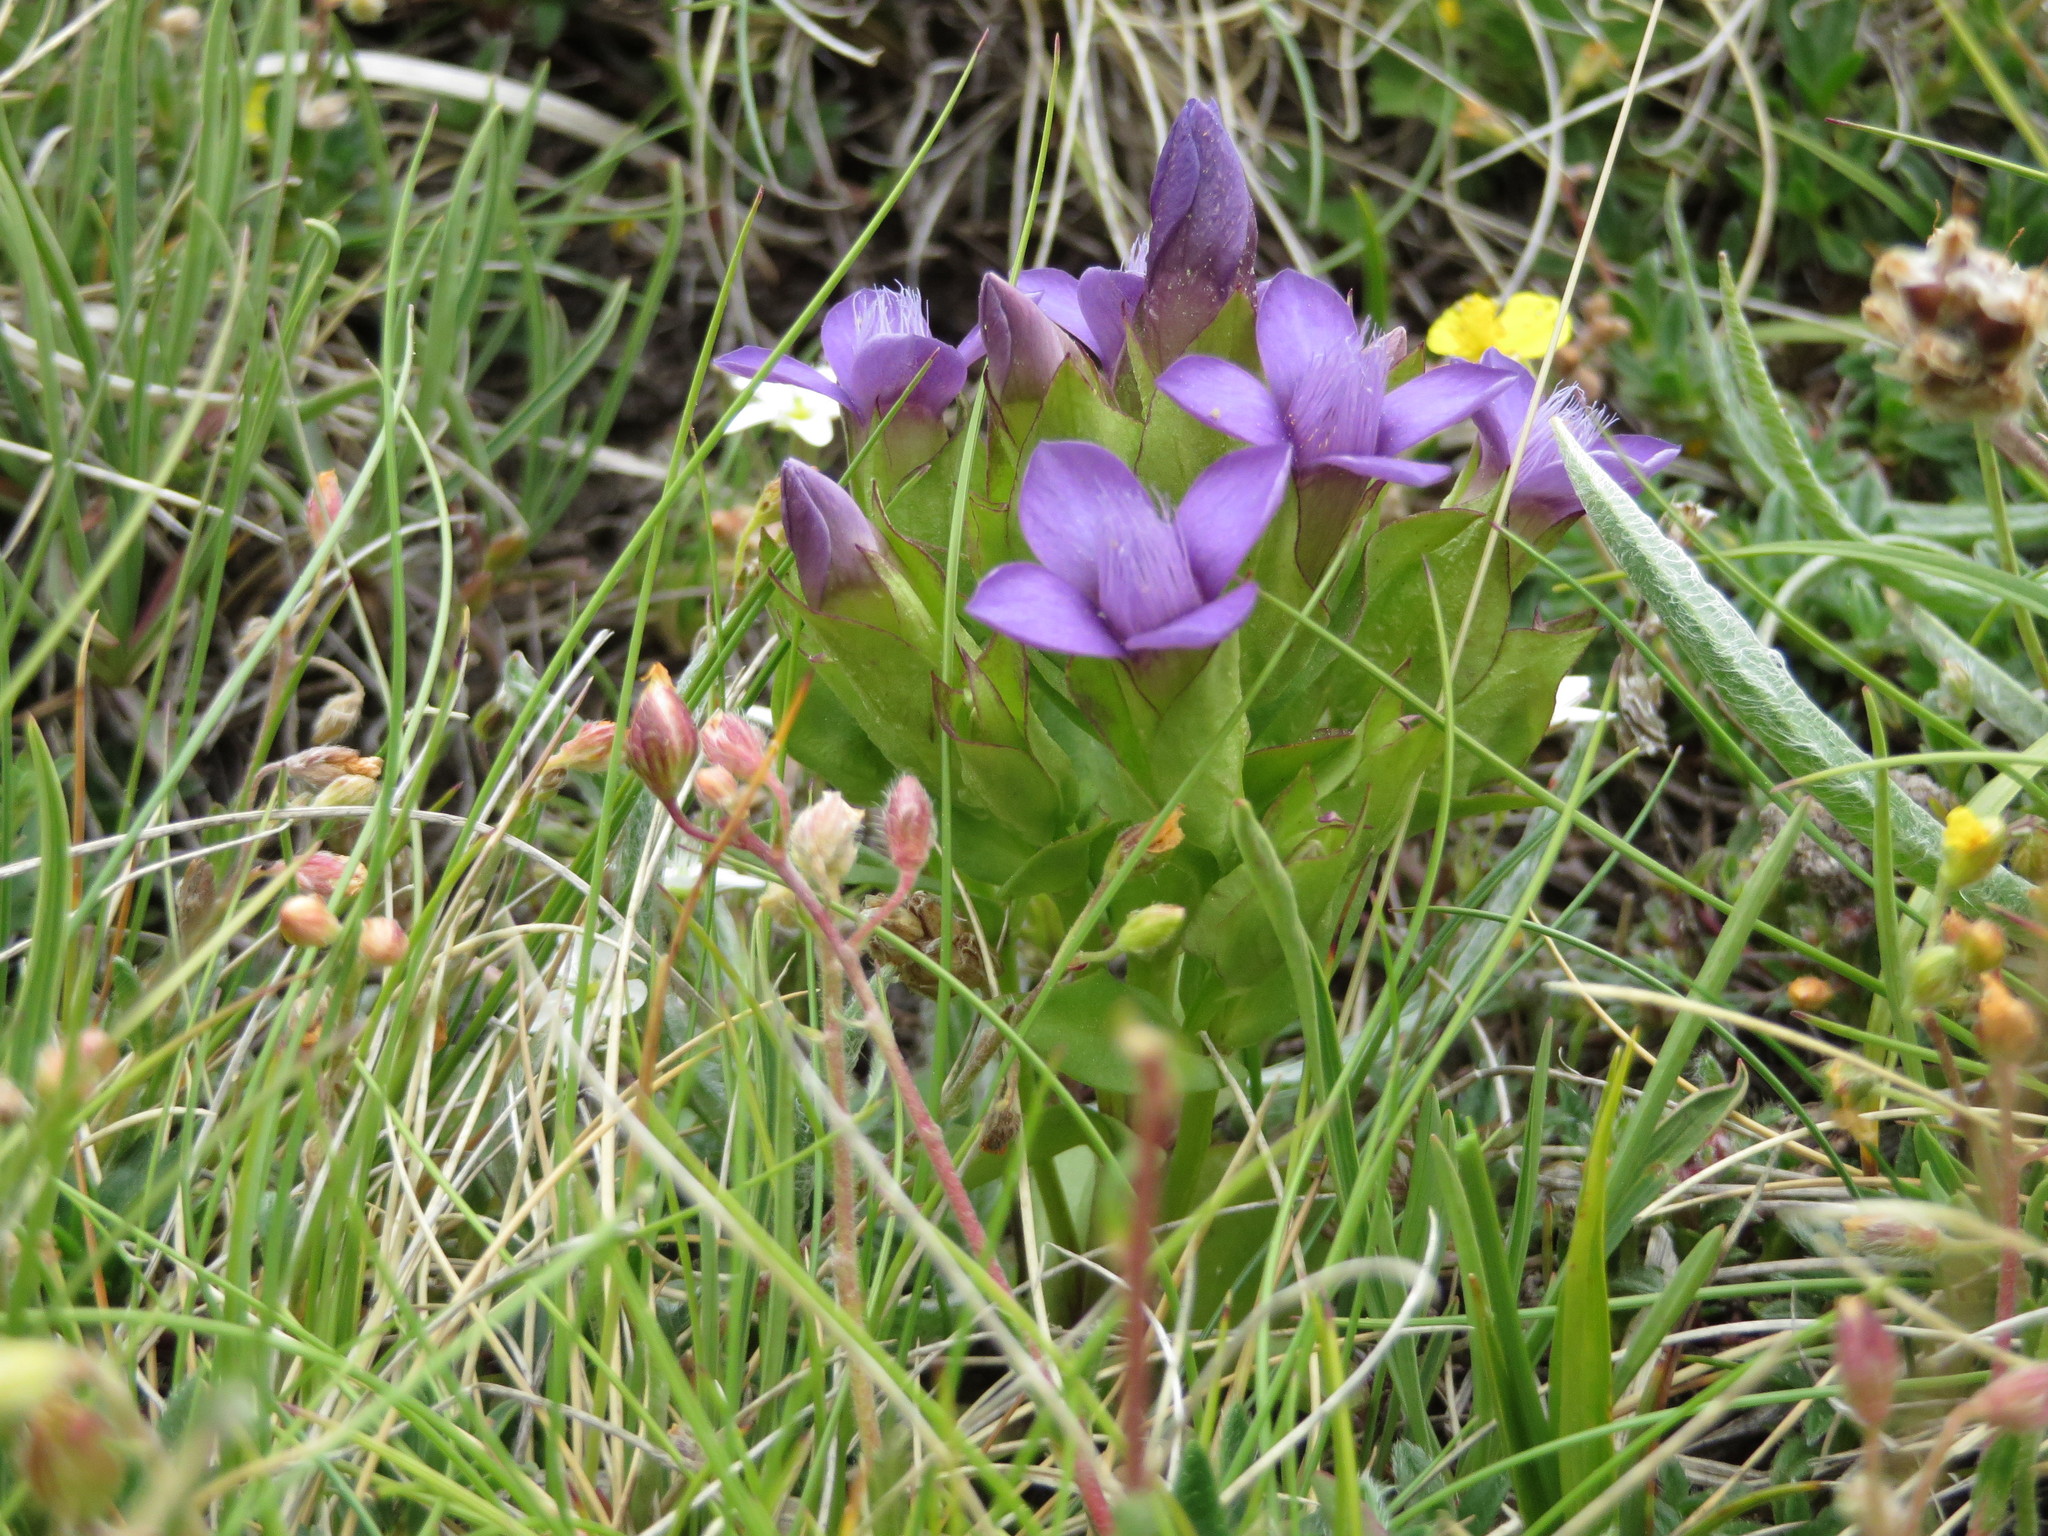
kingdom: Plantae
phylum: Tracheophyta
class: Magnoliopsida
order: Gentianales
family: Gentianaceae
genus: Gentianella
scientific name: Gentianella campestris
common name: Field gentian
